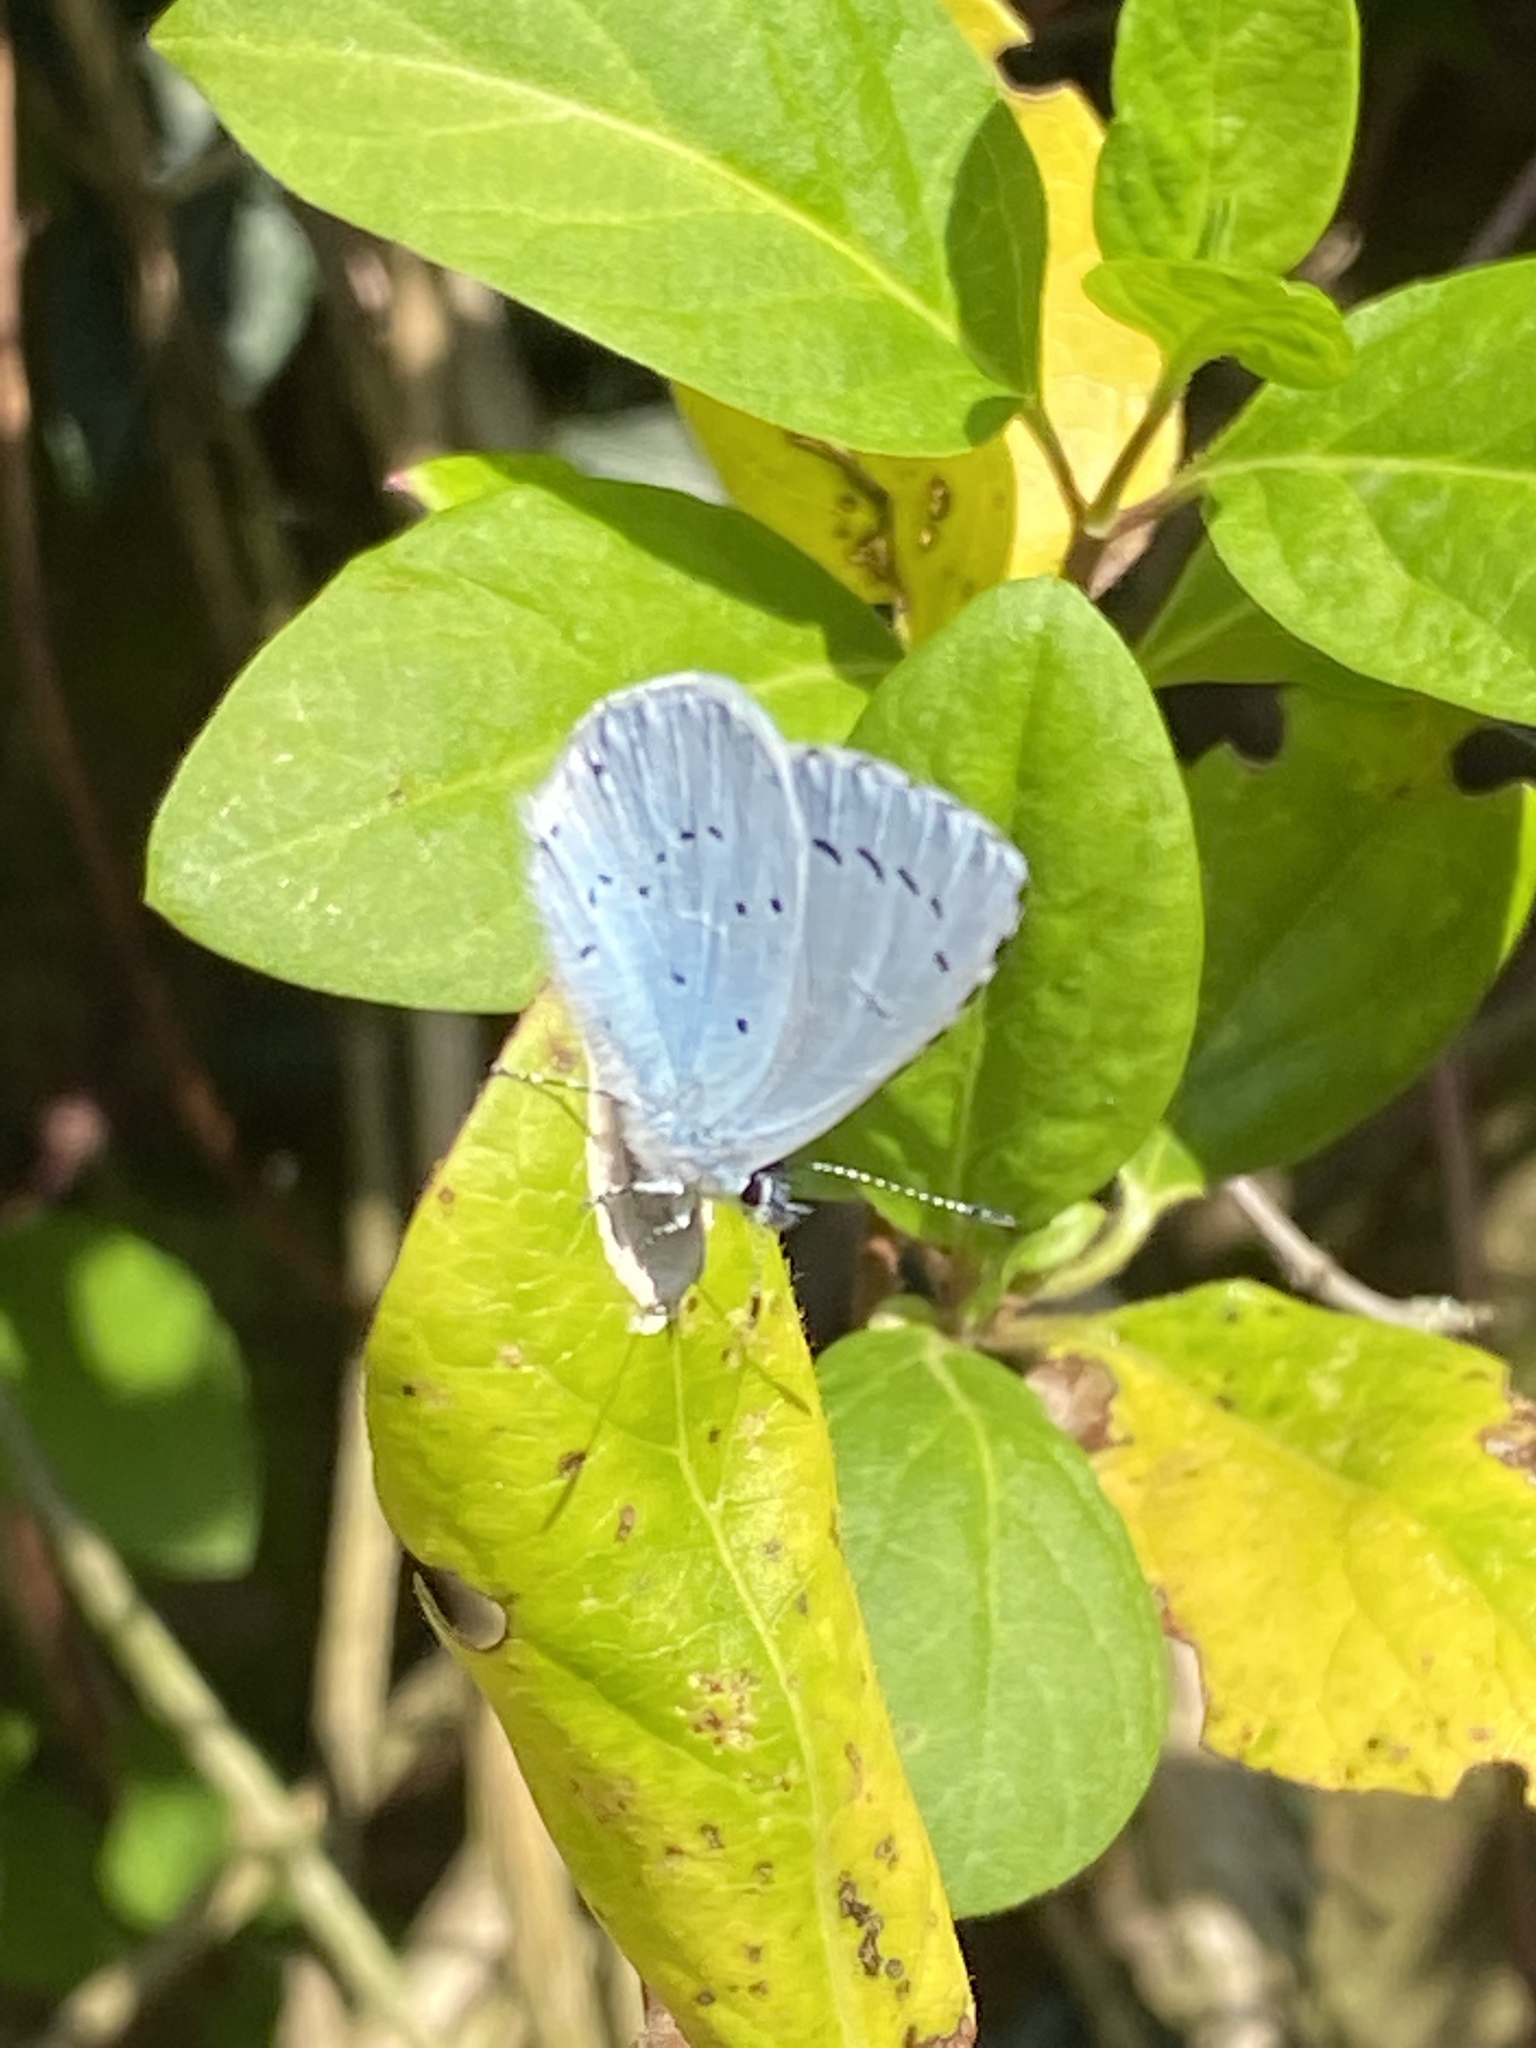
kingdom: Animalia
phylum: Arthropoda
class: Insecta
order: Lepidoptera
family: Lycaenidae
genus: Celastrina
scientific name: Celastrina argiolus
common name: Holly blue
